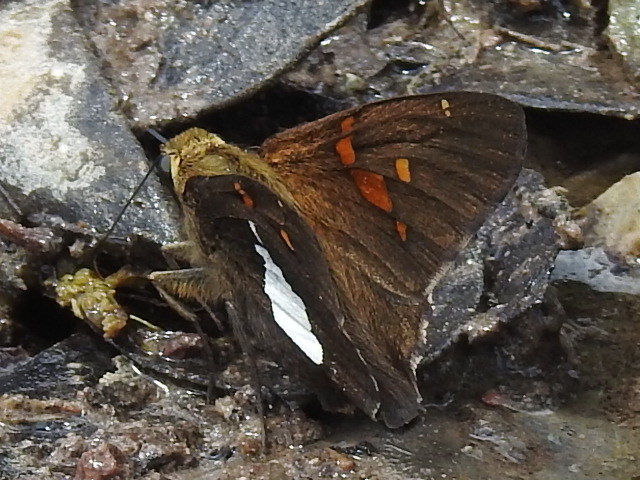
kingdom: Animalia
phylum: Arthropoda
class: Insecta
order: Lepidoptera
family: Hesperiidae
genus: Epargyreus
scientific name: Epargyreus clarus
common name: Silver-spotted skipper
